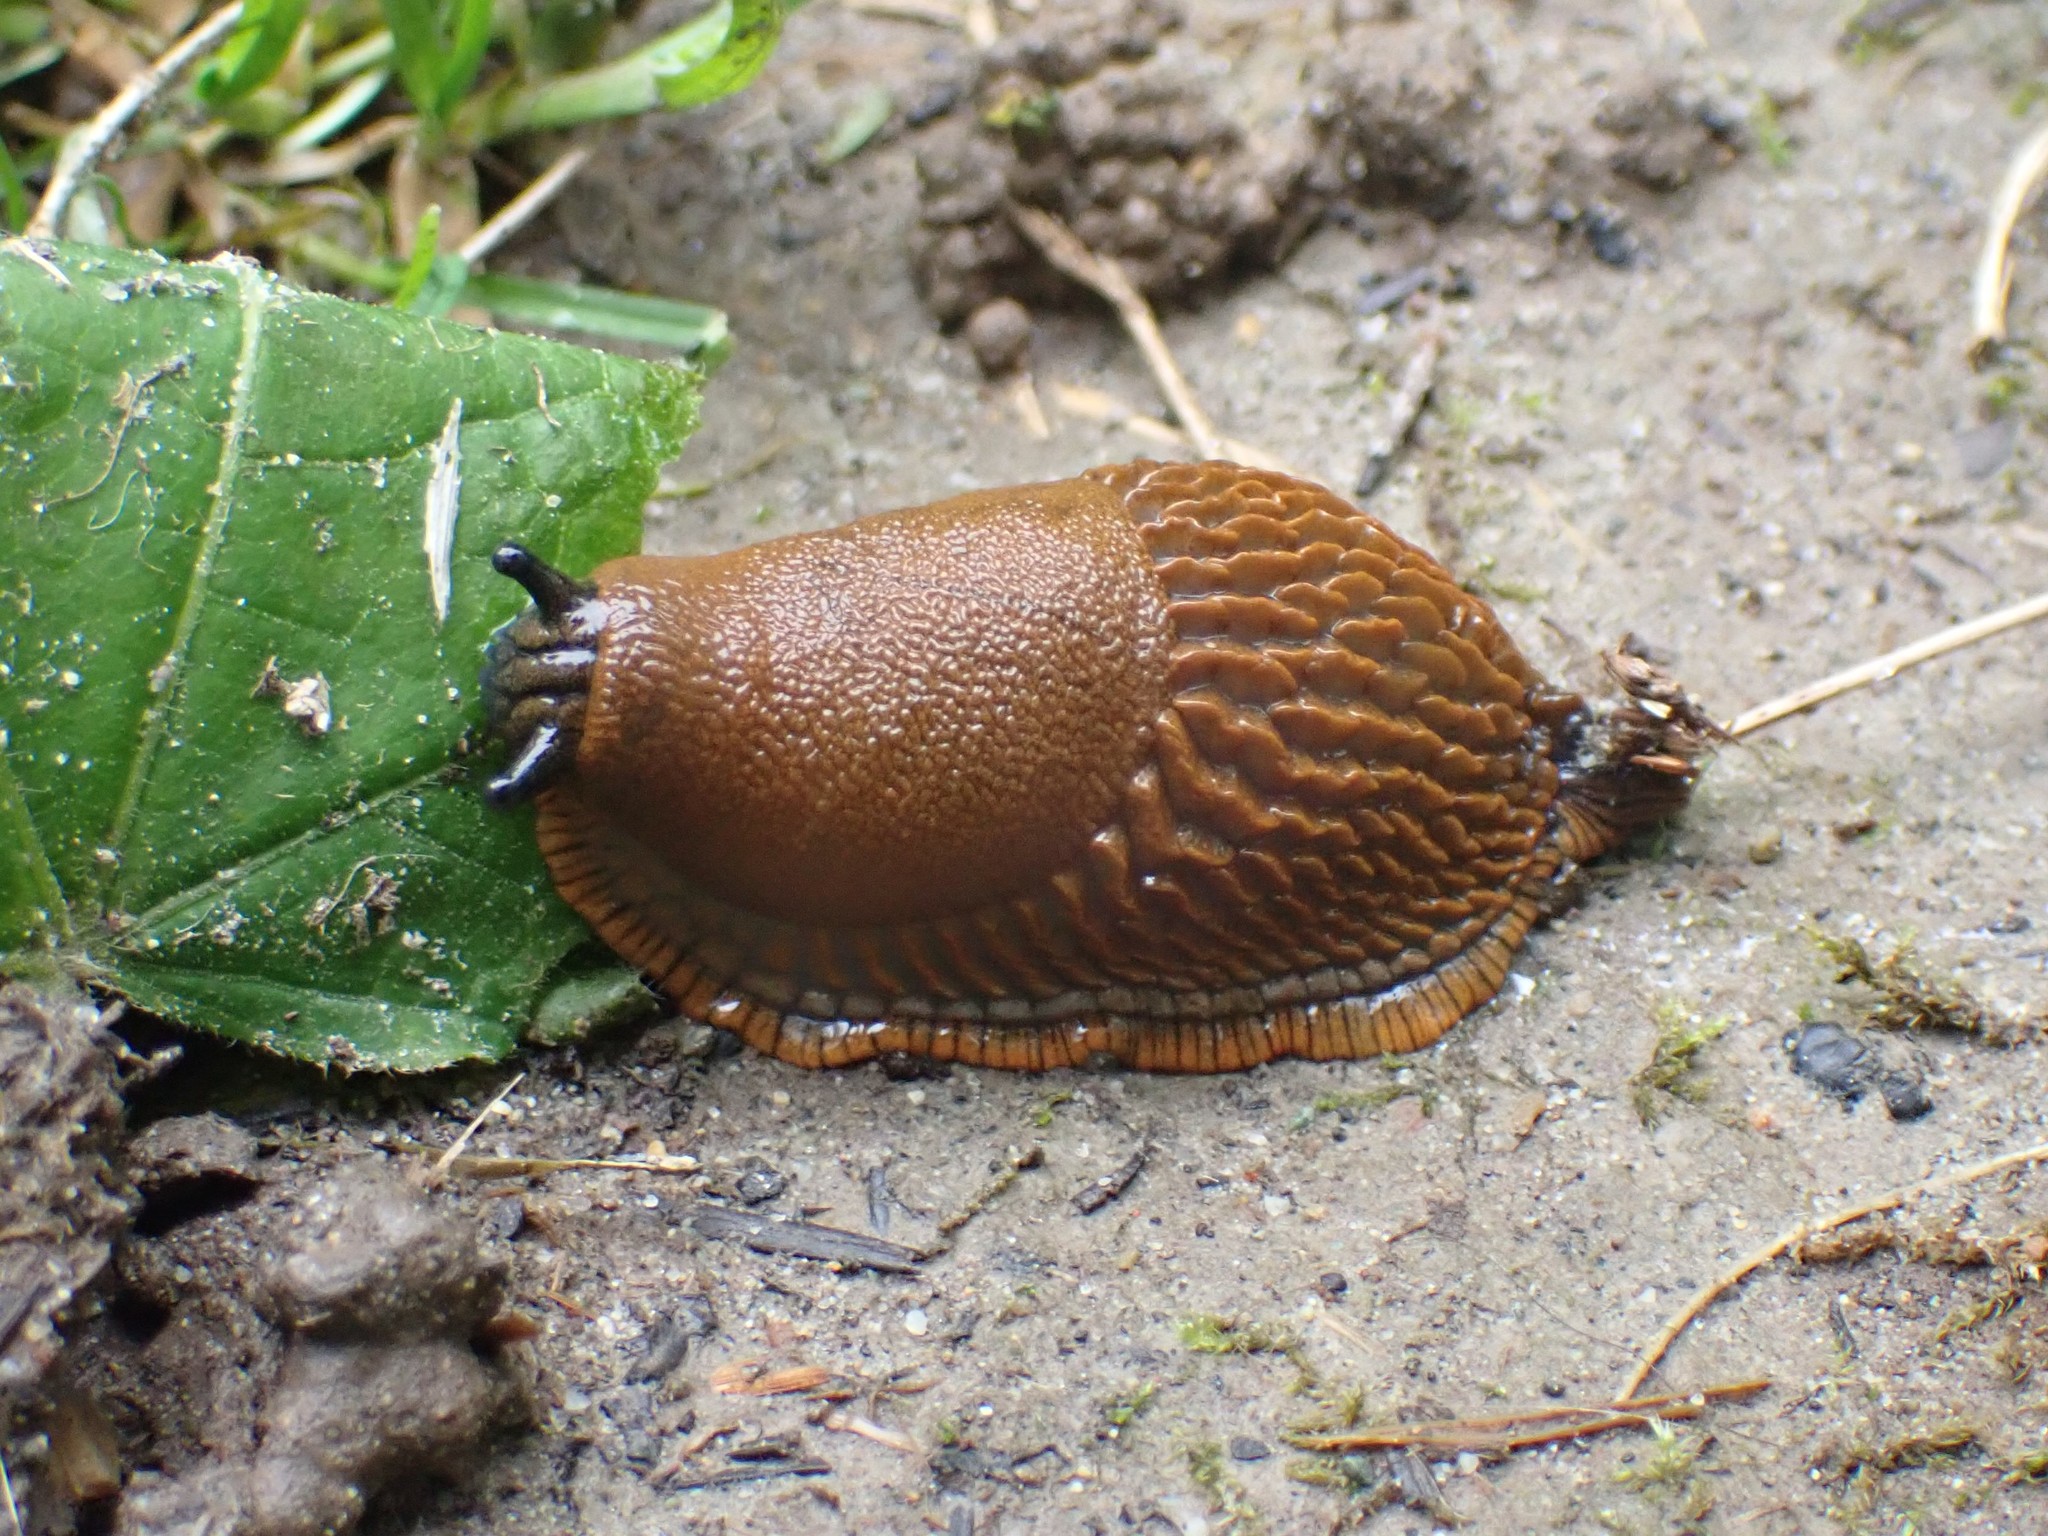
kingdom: Animalia
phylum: Mollusca
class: Gastropoda
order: Stylommatophora
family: Arionidae
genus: Arion
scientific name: Arion
